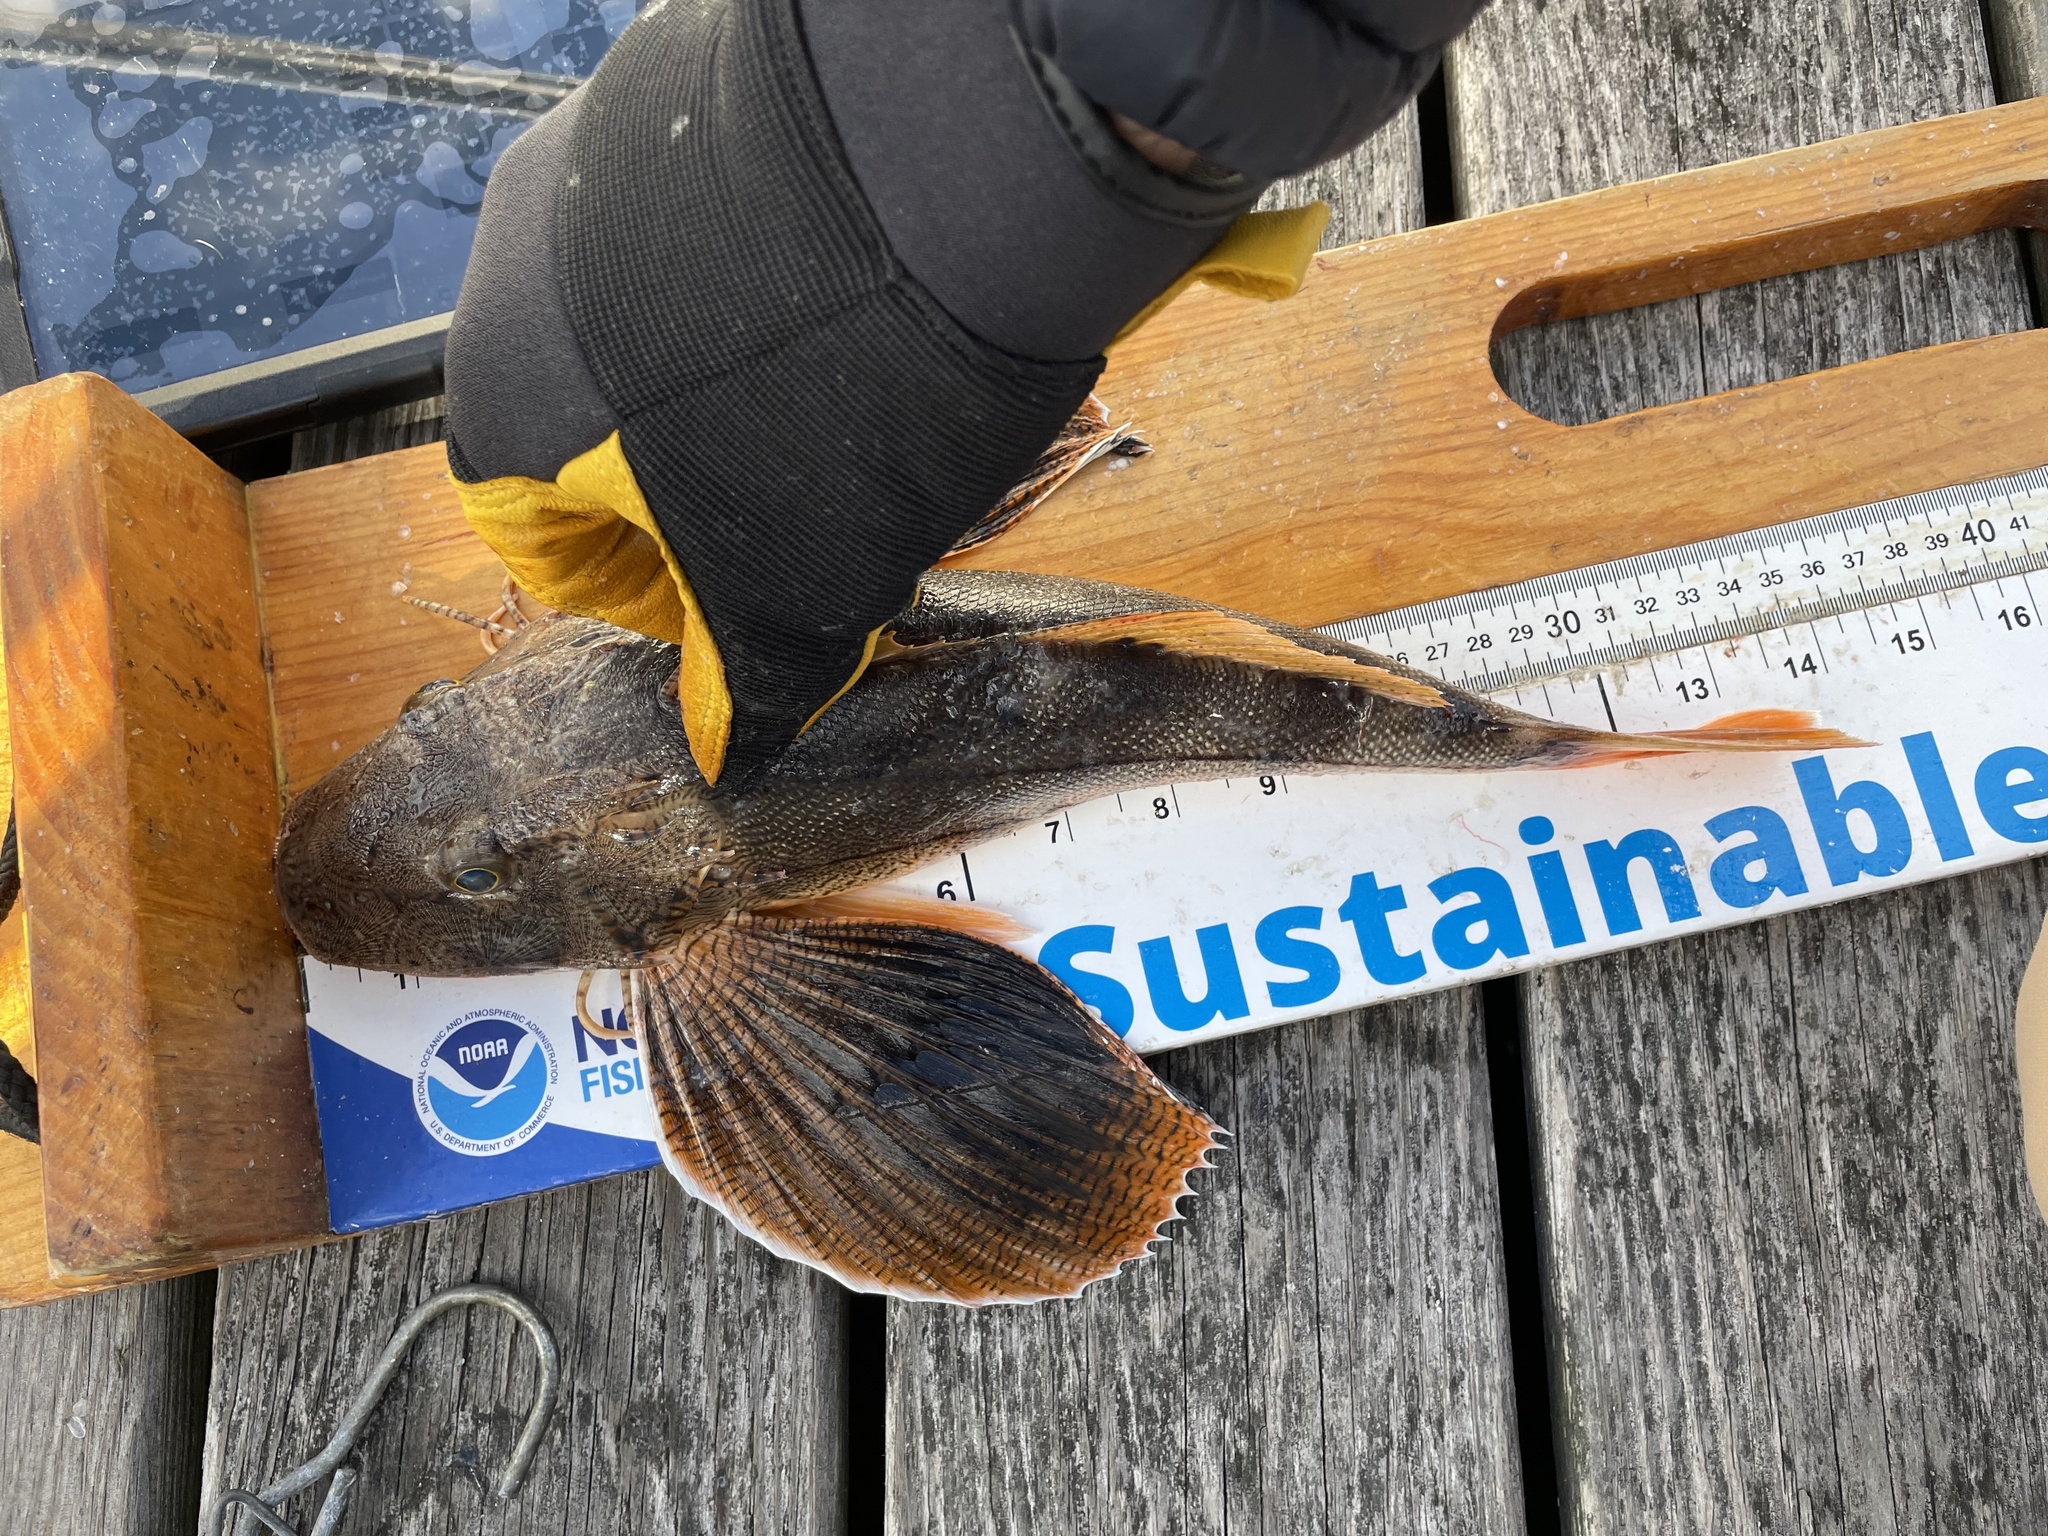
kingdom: Animalia
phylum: Chordata
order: Scorpaeniformes
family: Triglidae
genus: Prionotus
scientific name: Prionotus evolans
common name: Striped searobin
